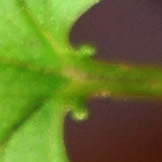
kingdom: Plantae
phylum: Tracheophyta
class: Magnoliopsida
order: Dipsacales
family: Viburnaceae
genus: Viburnum
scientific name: Viburnum opulus
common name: Guelder-rose
